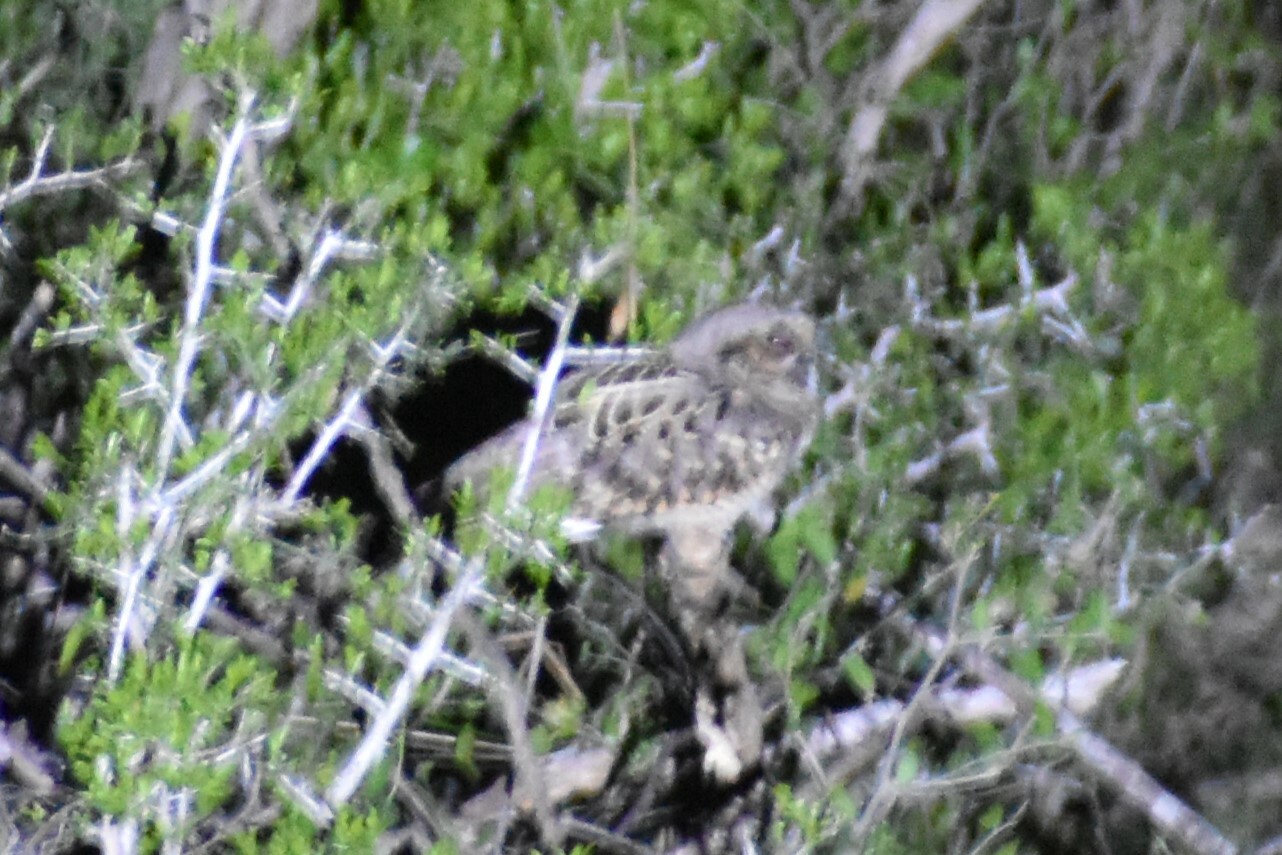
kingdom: Animalia
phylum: Chordata
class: Aves
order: Caprimulgiformes
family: Caprimulgidae
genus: Nyctidromus
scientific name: Nyctidromus albicollis
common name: Pauraque
